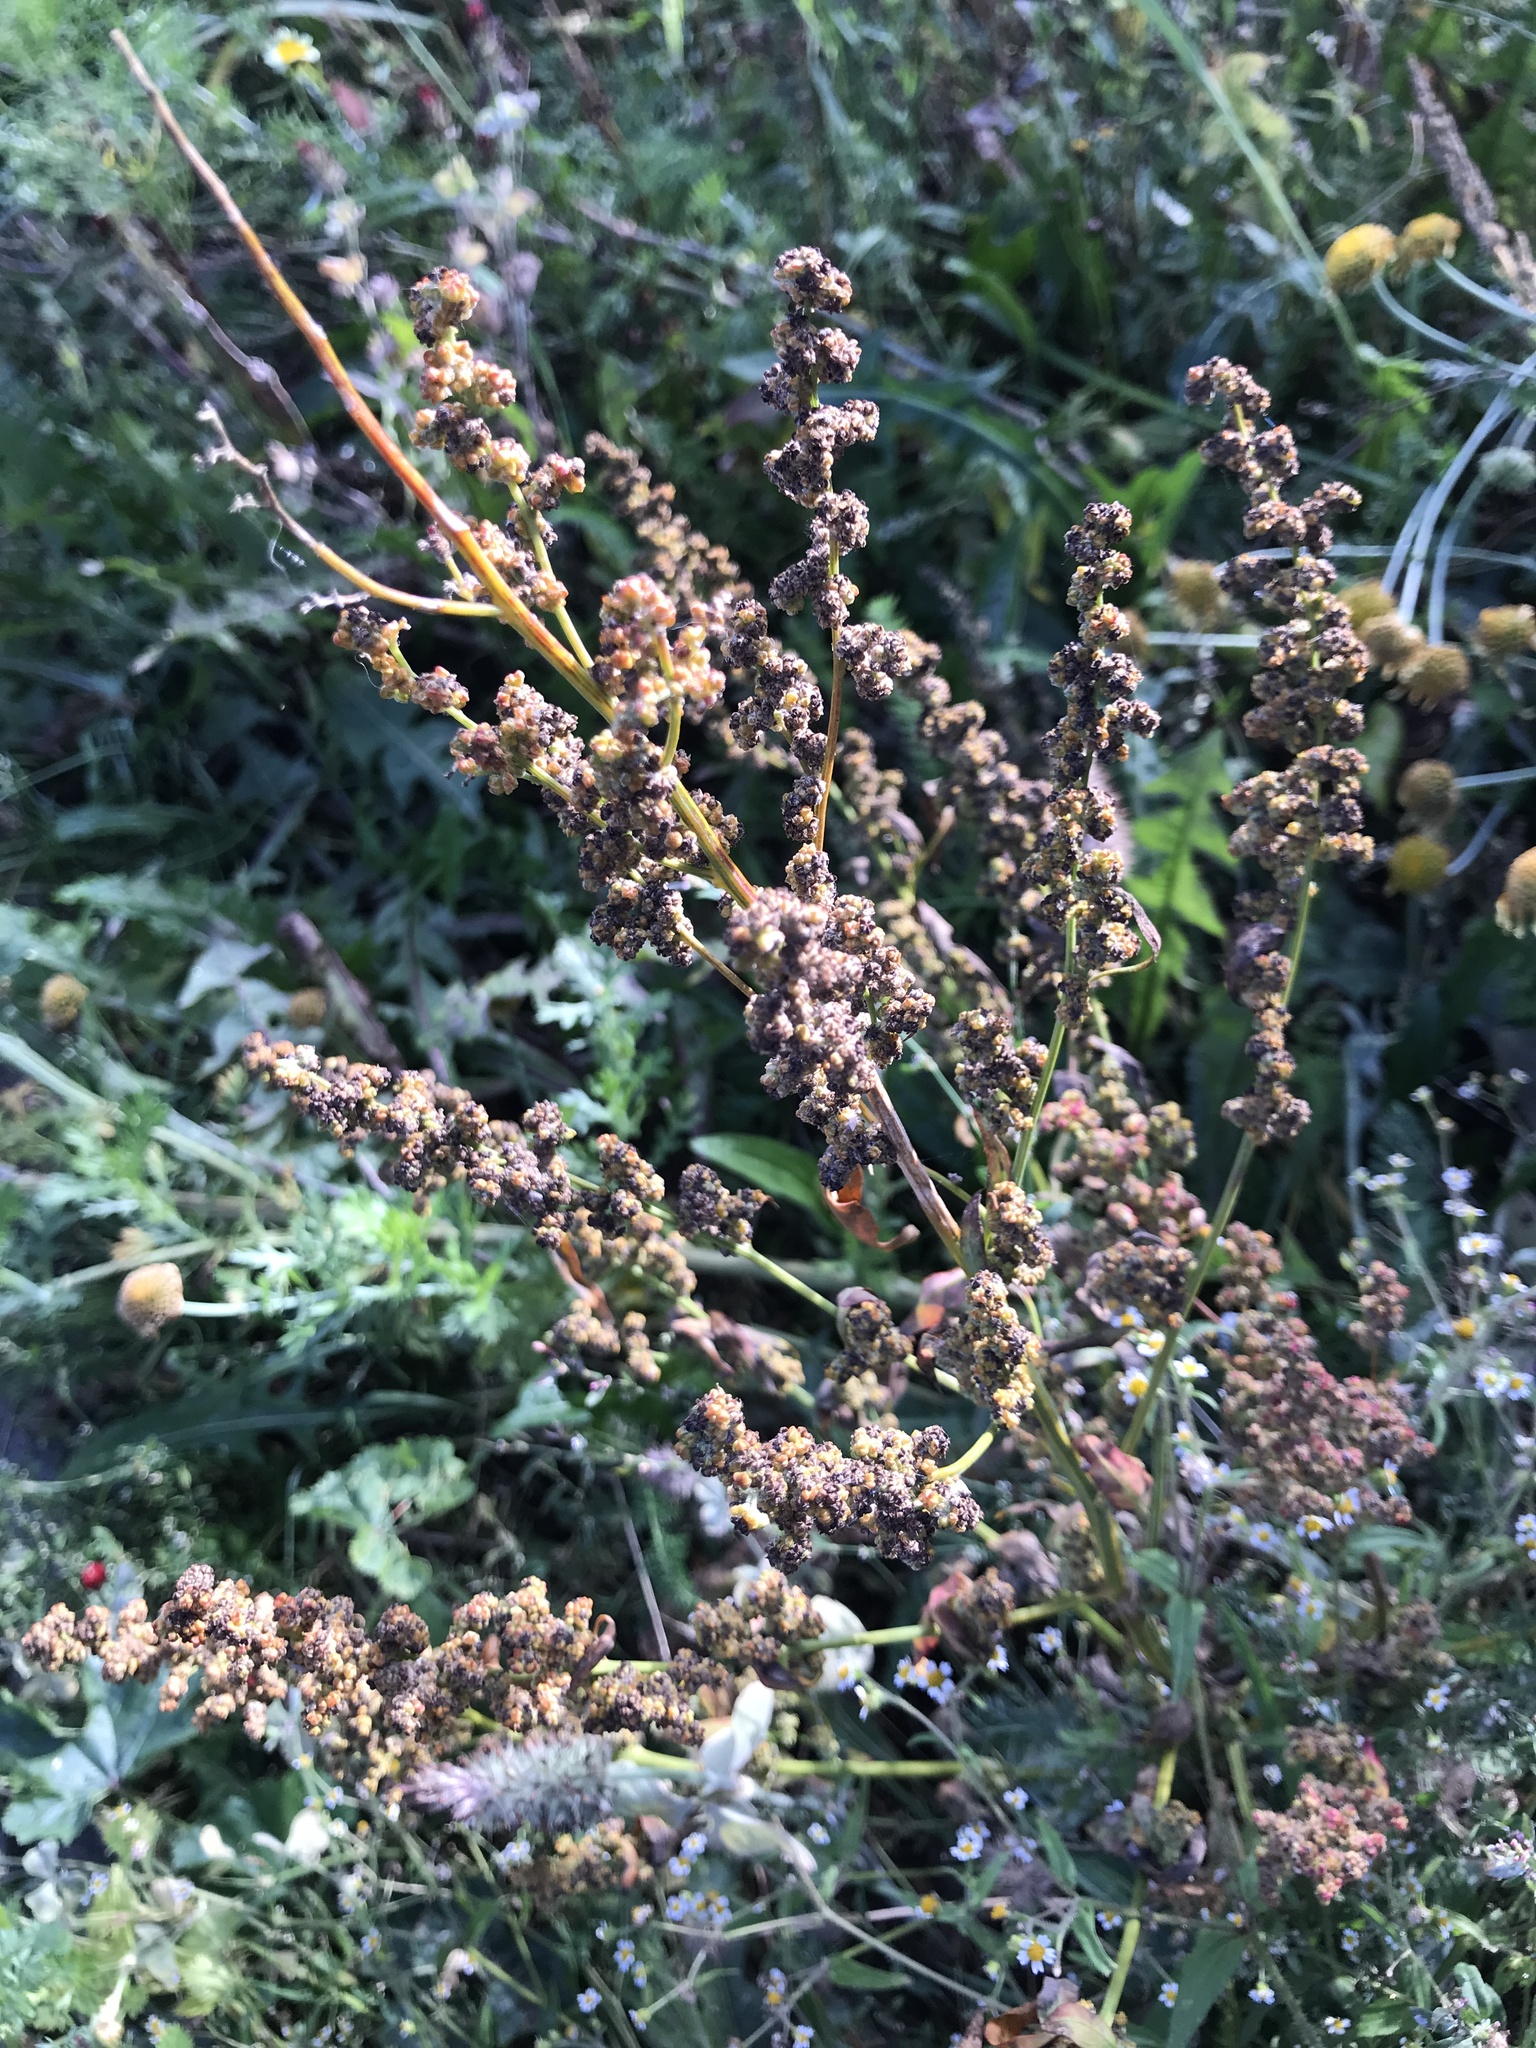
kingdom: Plantae
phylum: Tracheophyta
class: Magnoliopsida
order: Caryophyllales
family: Amaranthaceae
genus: Chenopodium
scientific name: Chenopodium album
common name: Fat-hen
